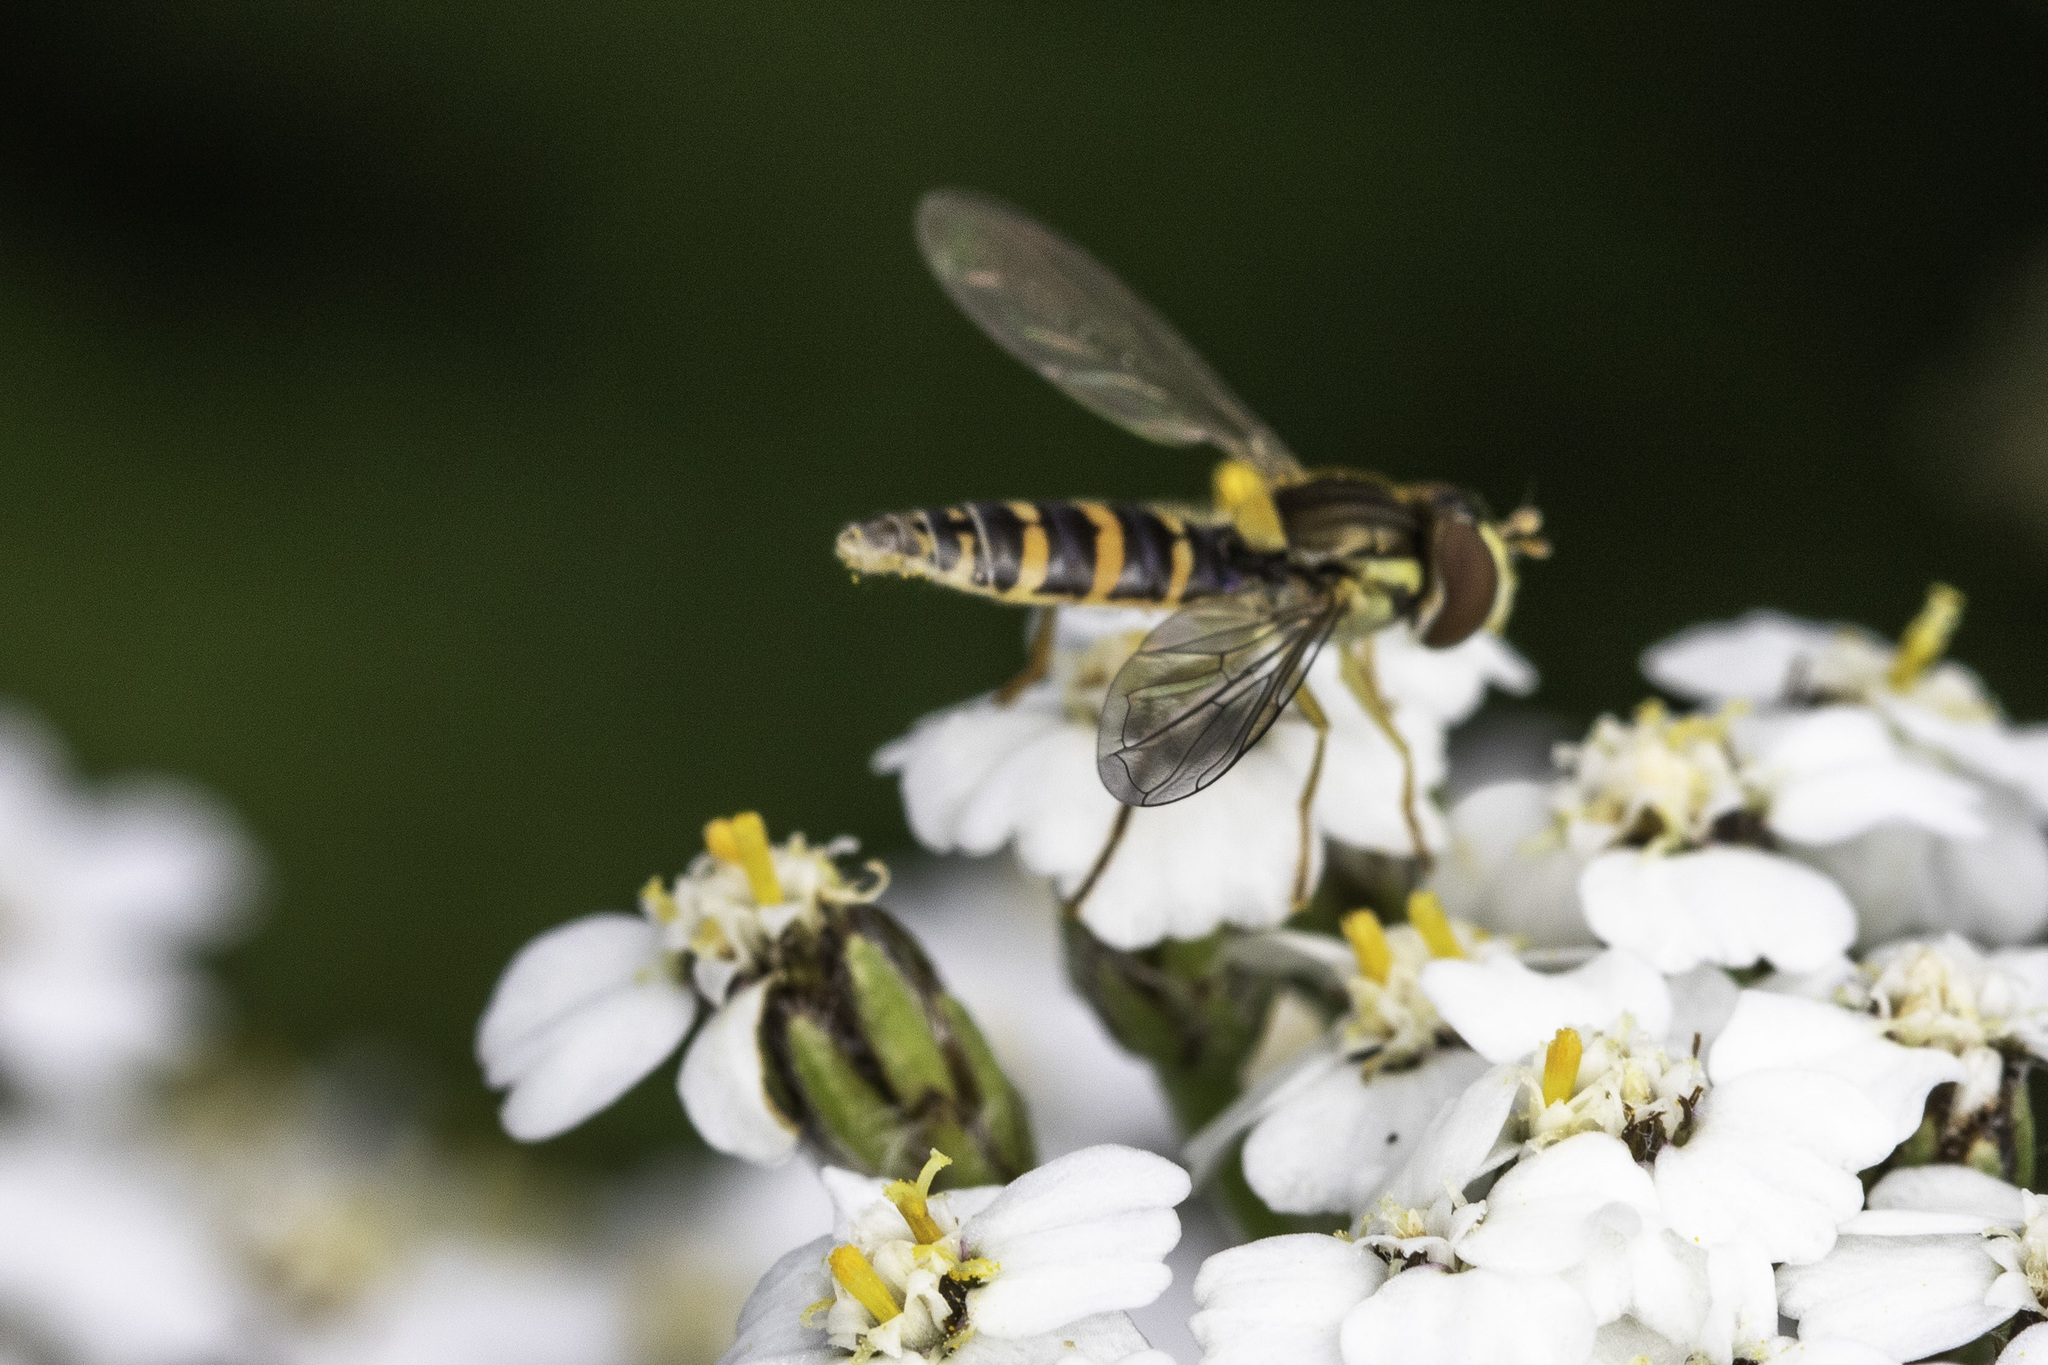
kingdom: Animalia
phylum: Arthropoda
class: Insecta
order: Diptera
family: Syrphidae
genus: Sphaerophoria
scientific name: Sphaerophoria
